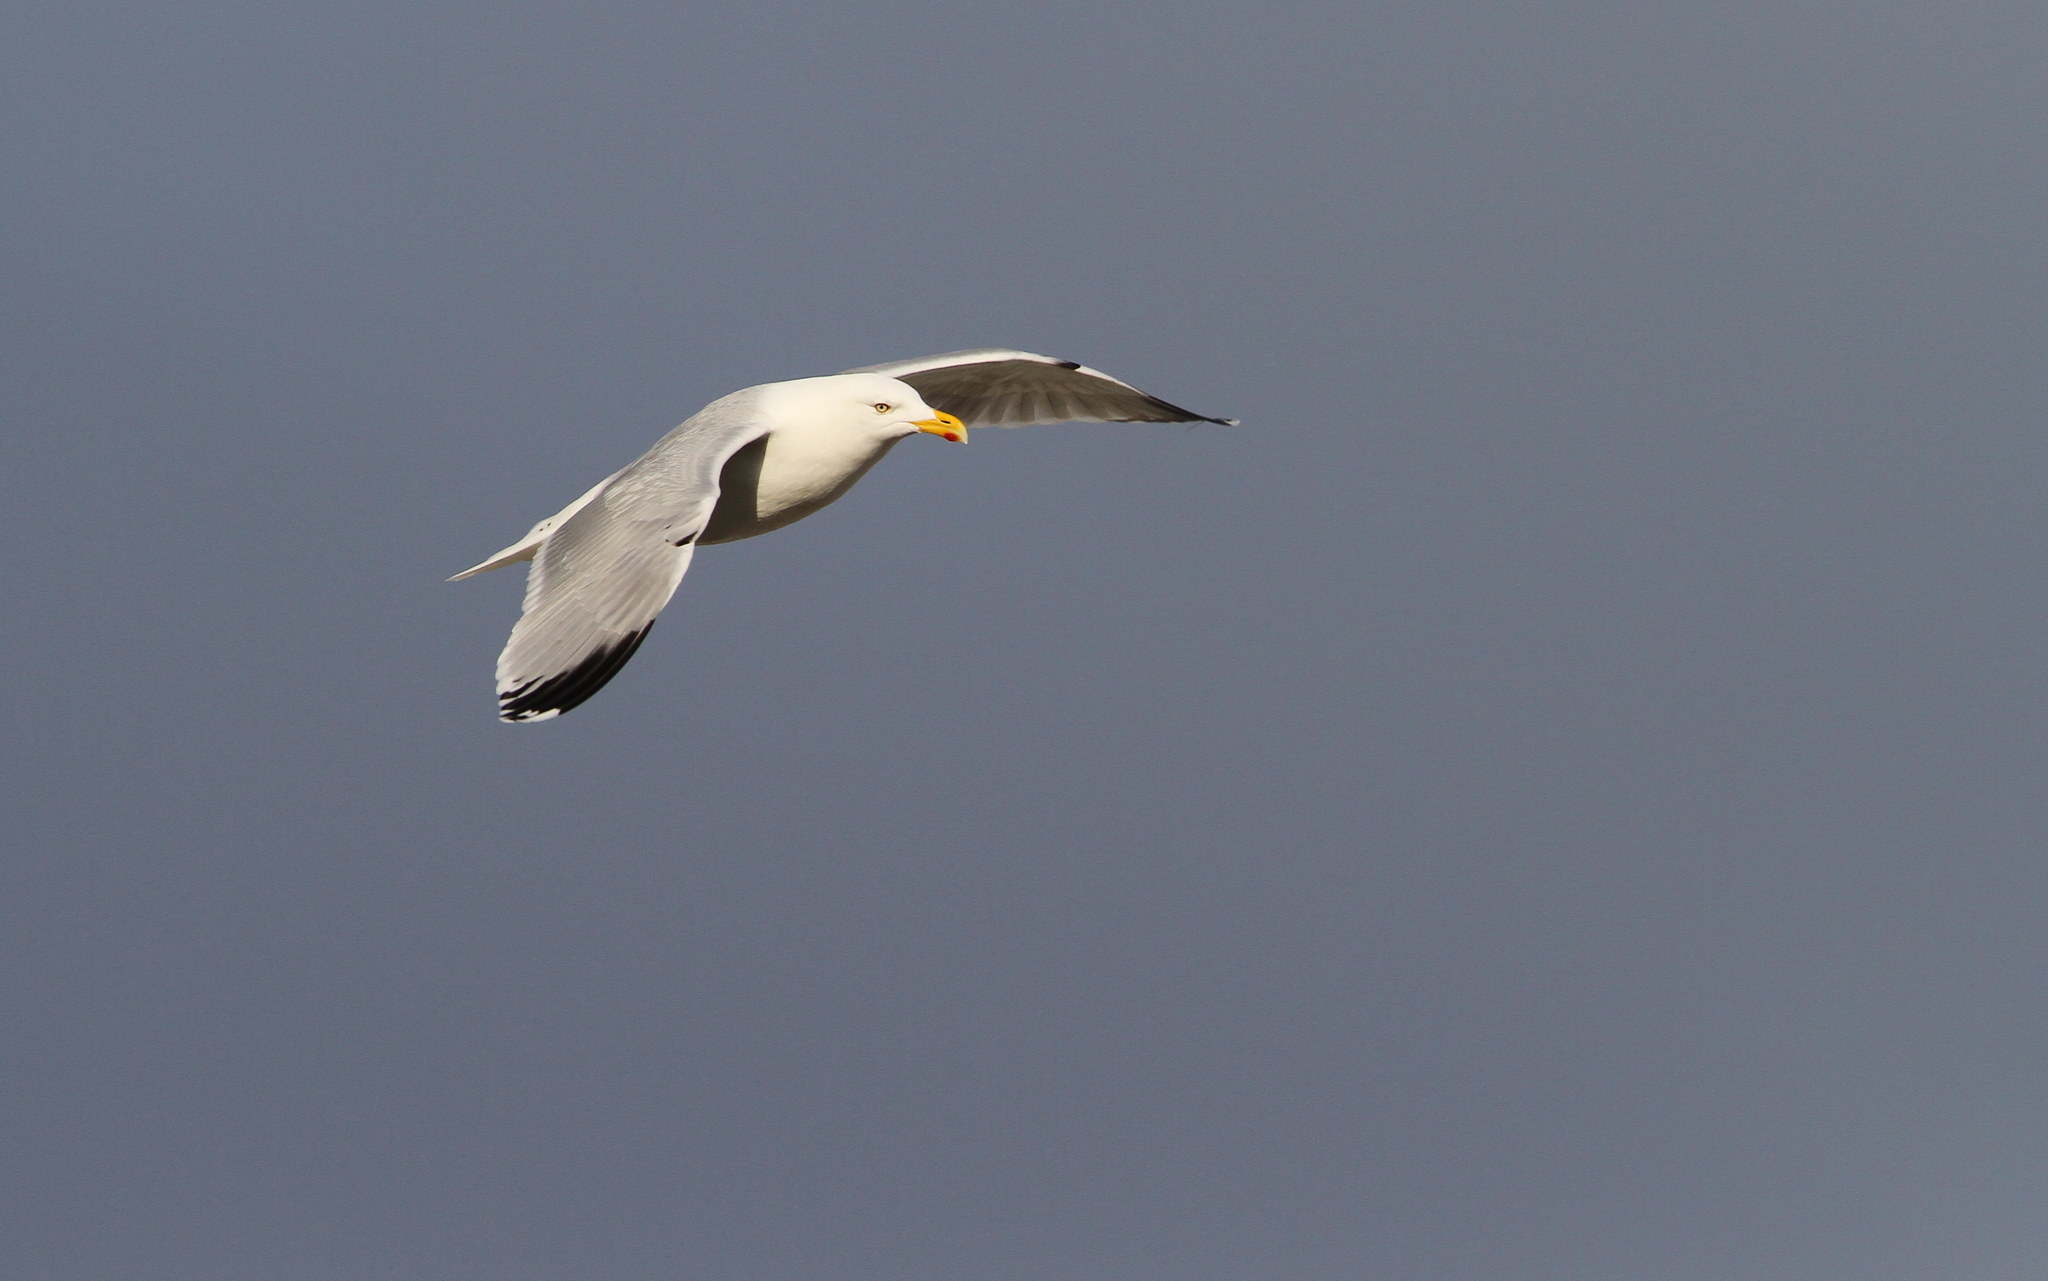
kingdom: Animalia
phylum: Chordata
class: Aves
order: Charadriiformes
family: Laridae
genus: Larus
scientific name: Larus argentatus
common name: Herring gull
